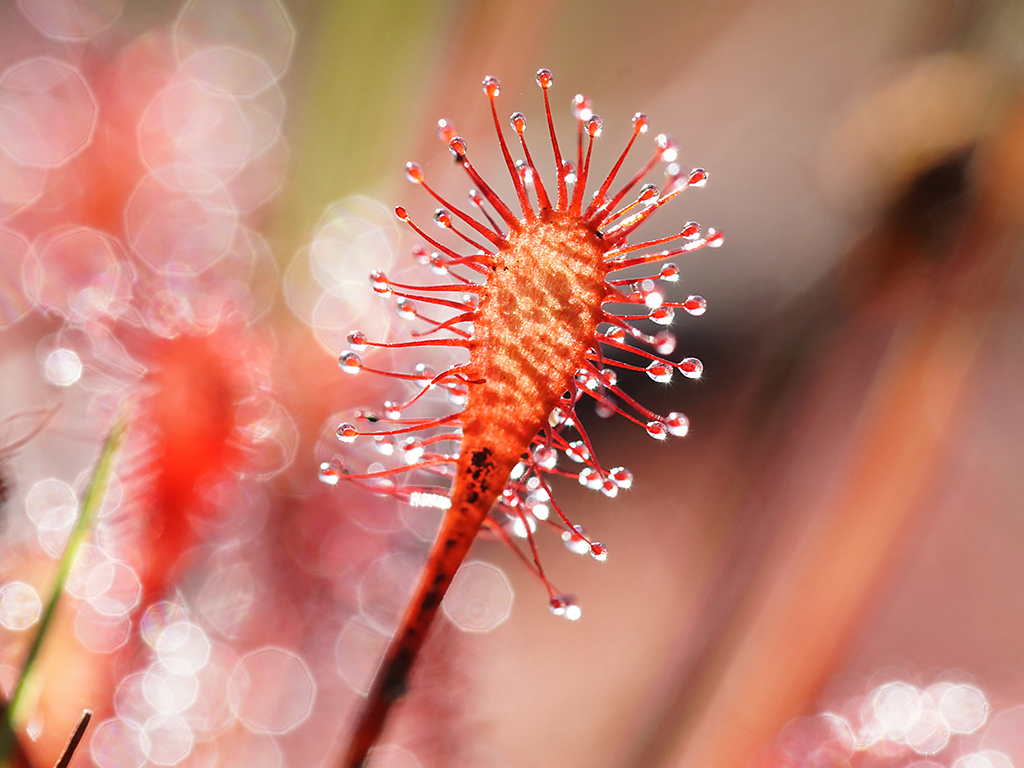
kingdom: Plantae
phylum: Tracheophyta
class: Magnoliopsida
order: Caryophyllales
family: Droseraceae
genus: Drosera
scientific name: Drosera intermedia
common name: Oblong-leaved sundew
